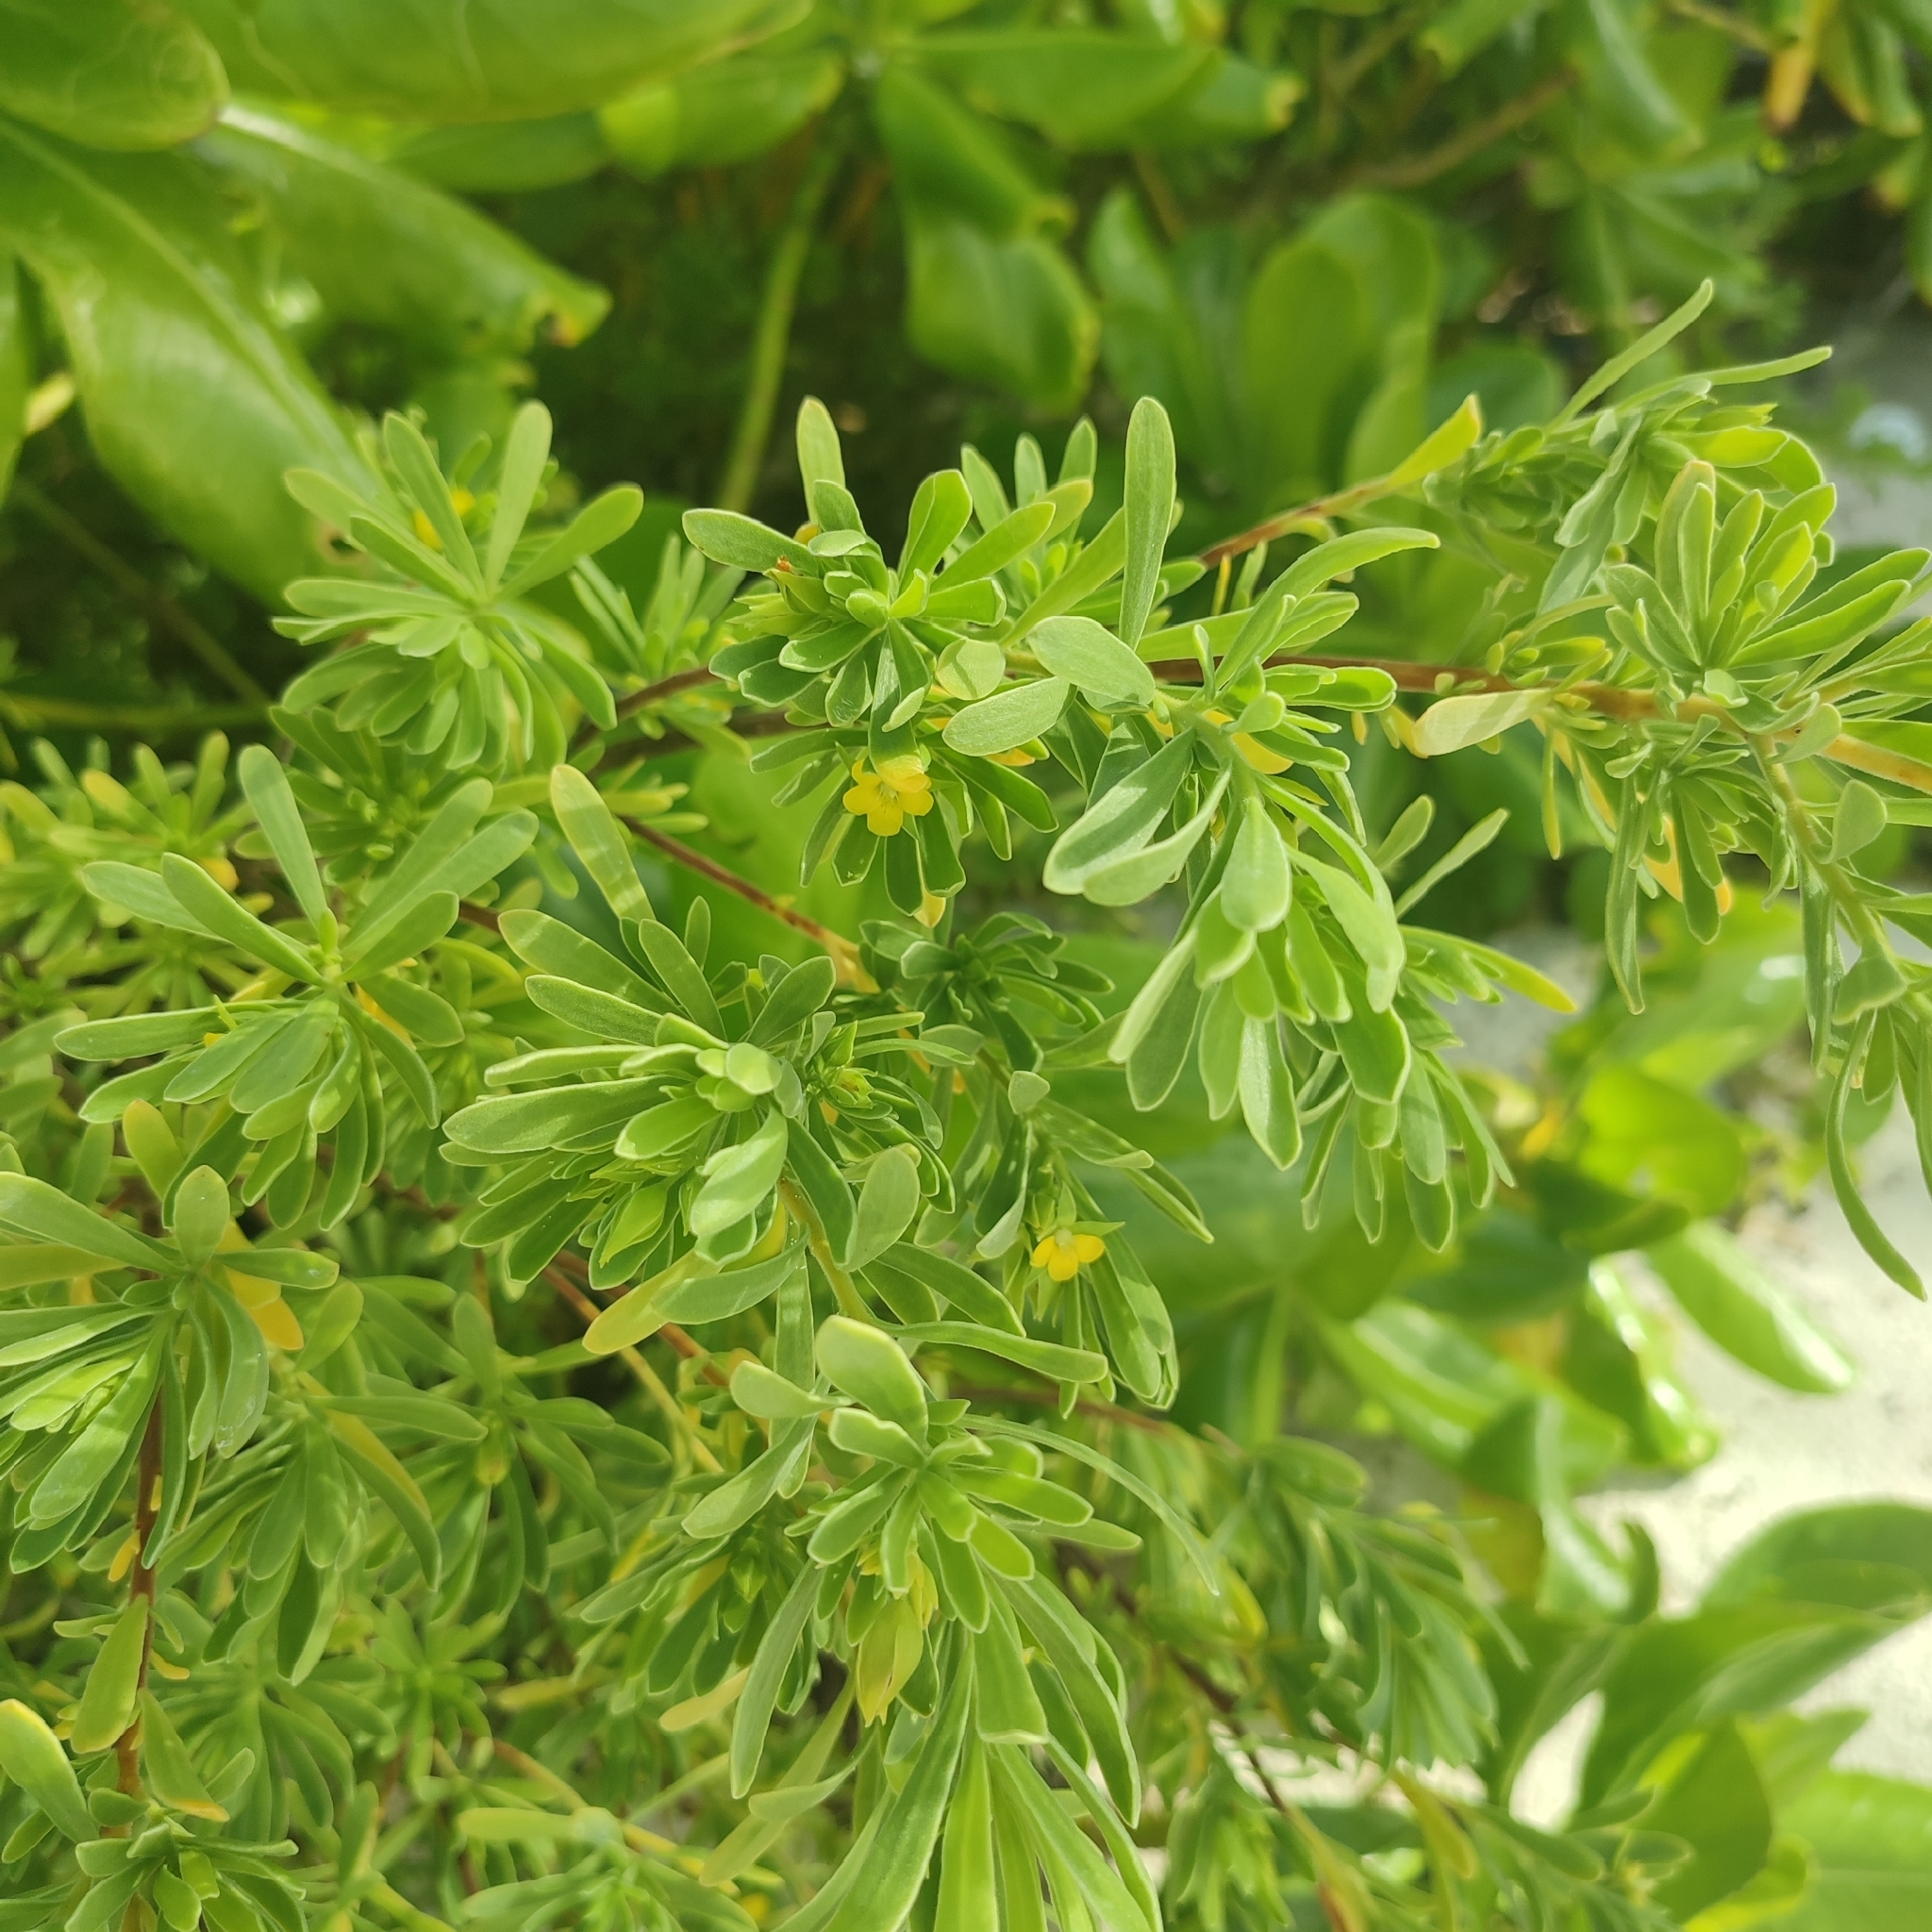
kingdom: Plantae
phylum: Tracheophyta
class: Magnoliopsida
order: Fabales
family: Surianaceae
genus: Suriana
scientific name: Suriana maritima
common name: Bay-cedar
